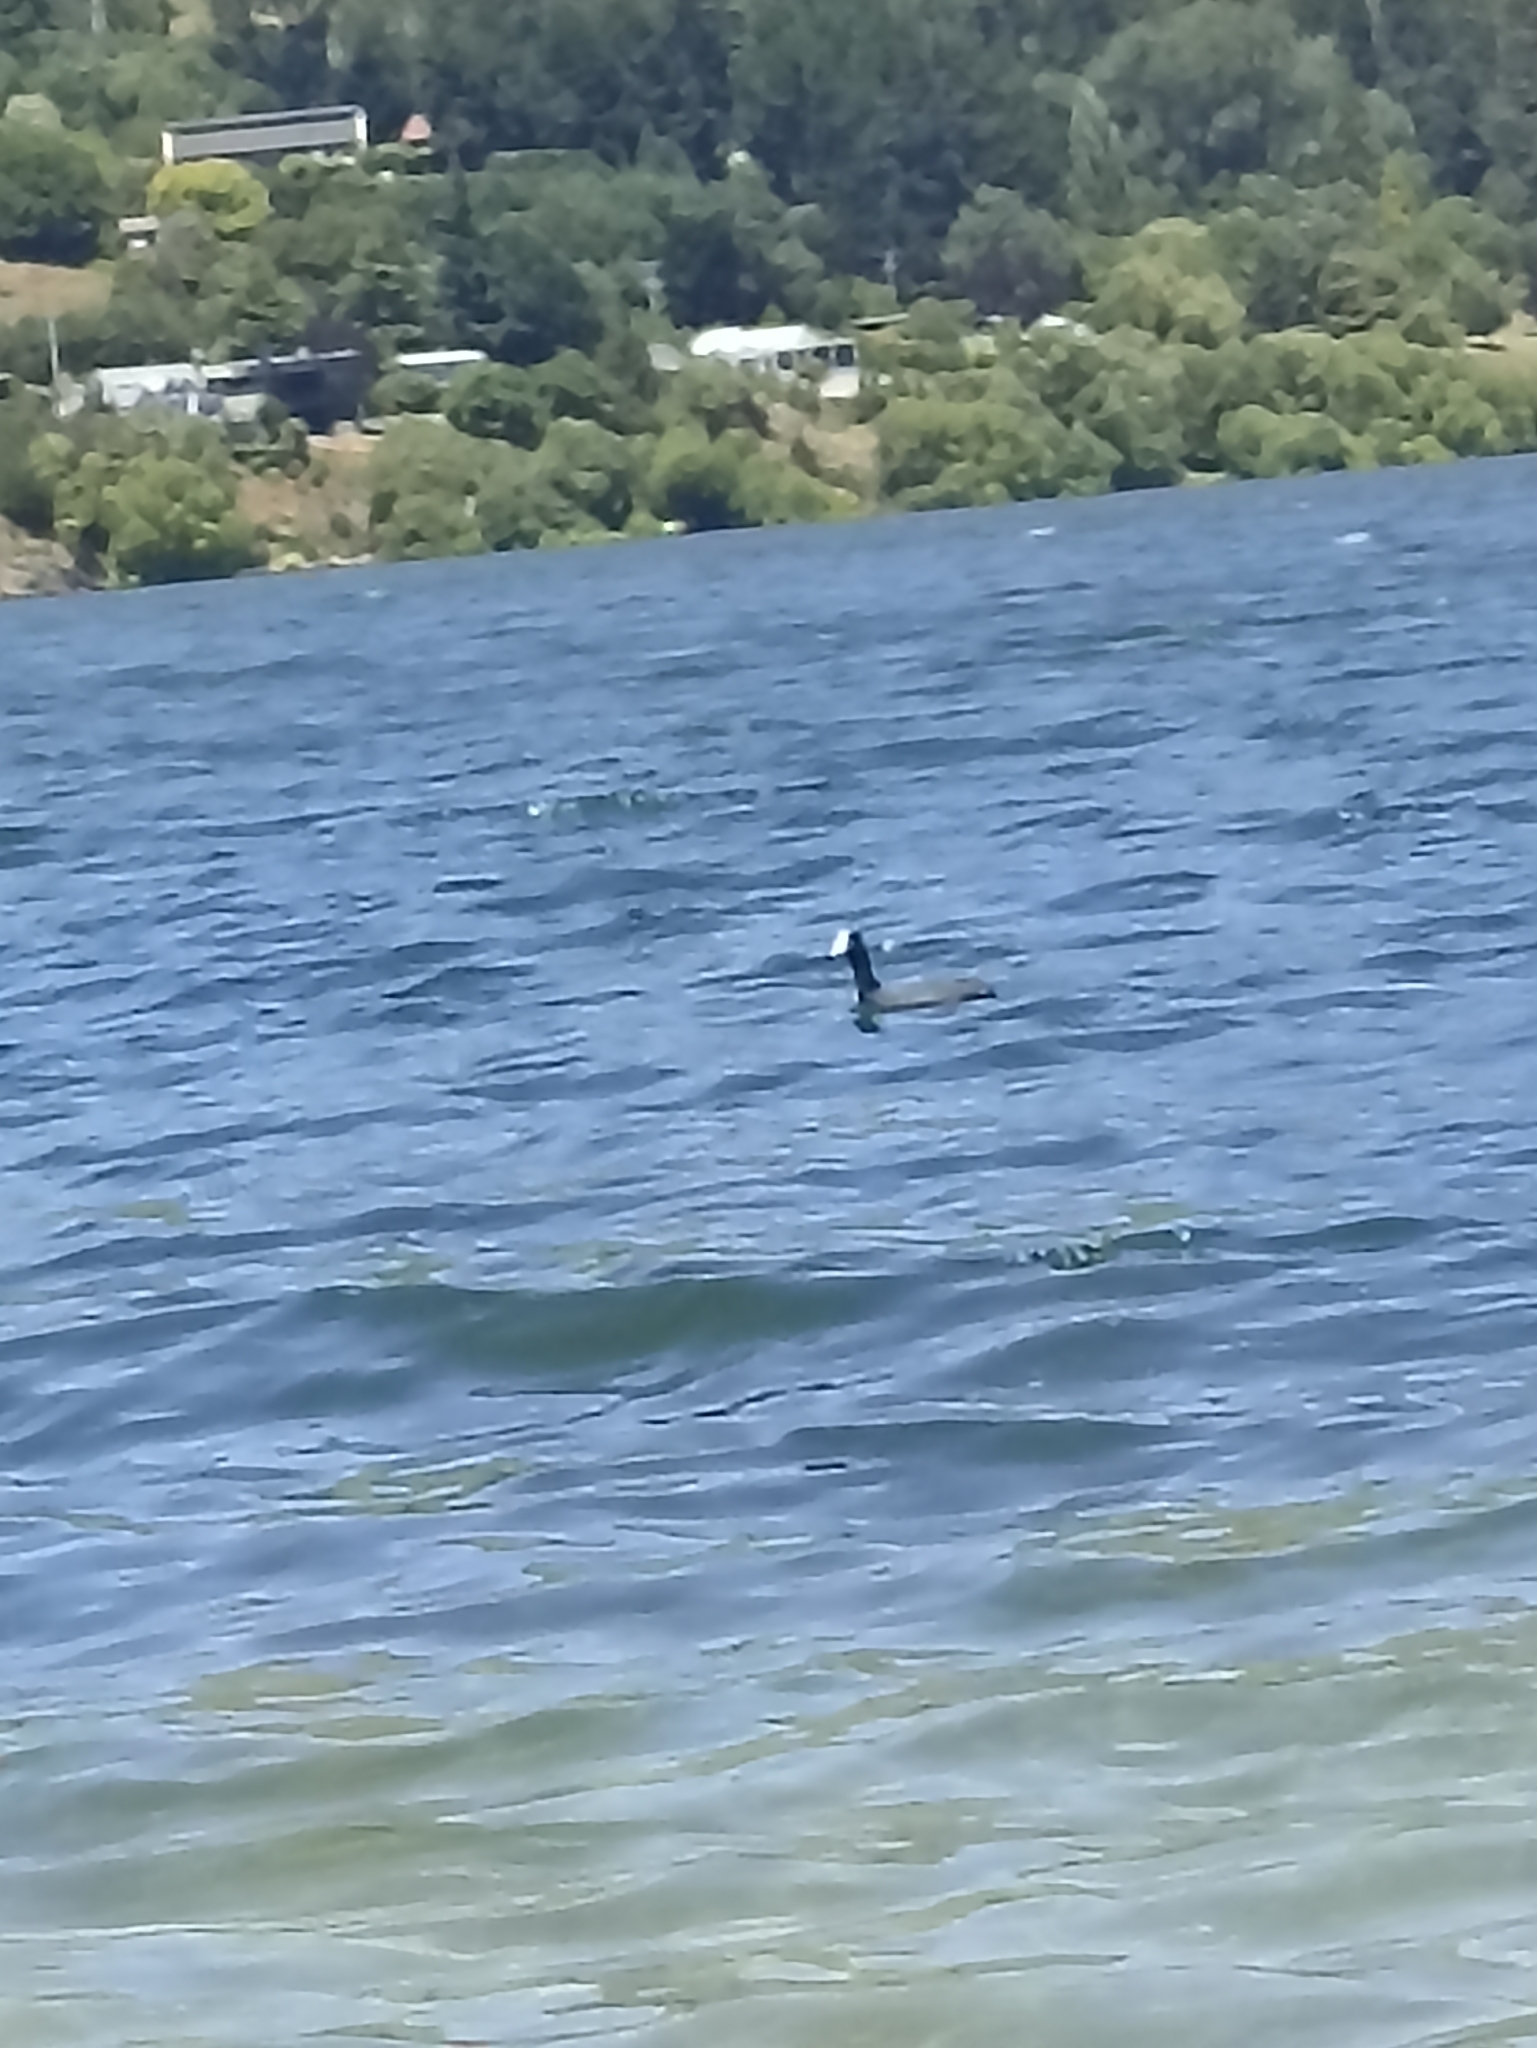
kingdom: Animalia
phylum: Chordata
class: Aves
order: Gruiformes
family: Rallidae
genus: Fulica
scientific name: Fulica atra
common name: Eurasian coot
